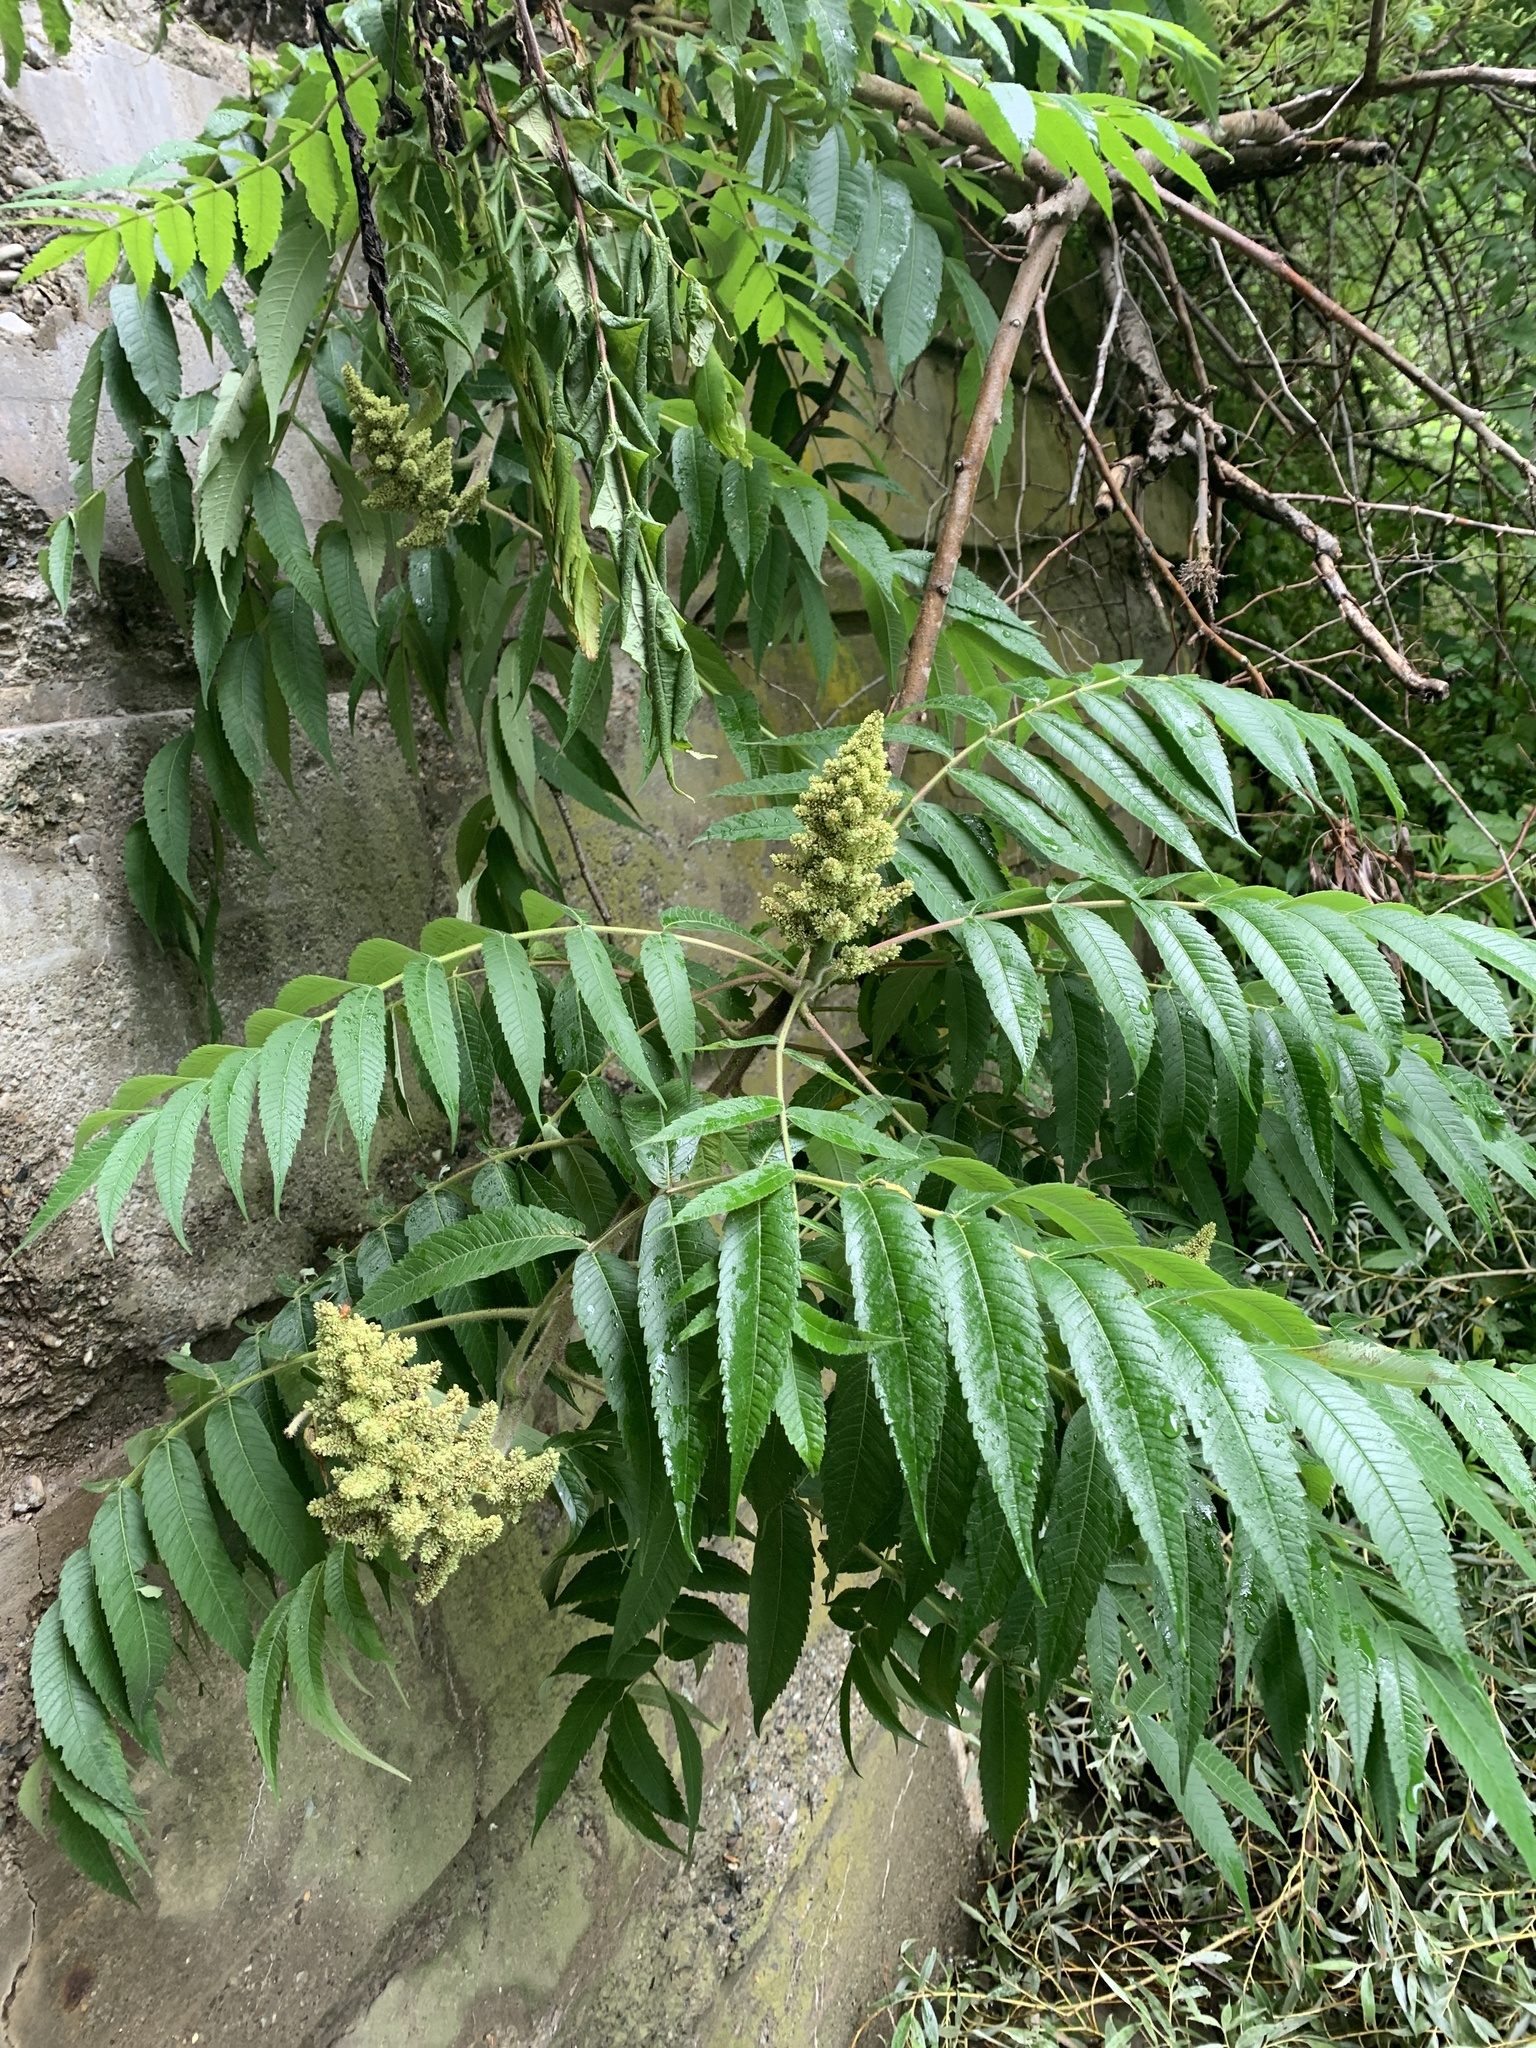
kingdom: Plantae
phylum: Tracheophyta
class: Magnoliopsida
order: Sapindales
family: Anacardiaceae
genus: Rhus
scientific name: Rhus typhina
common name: Staghorn sumac
